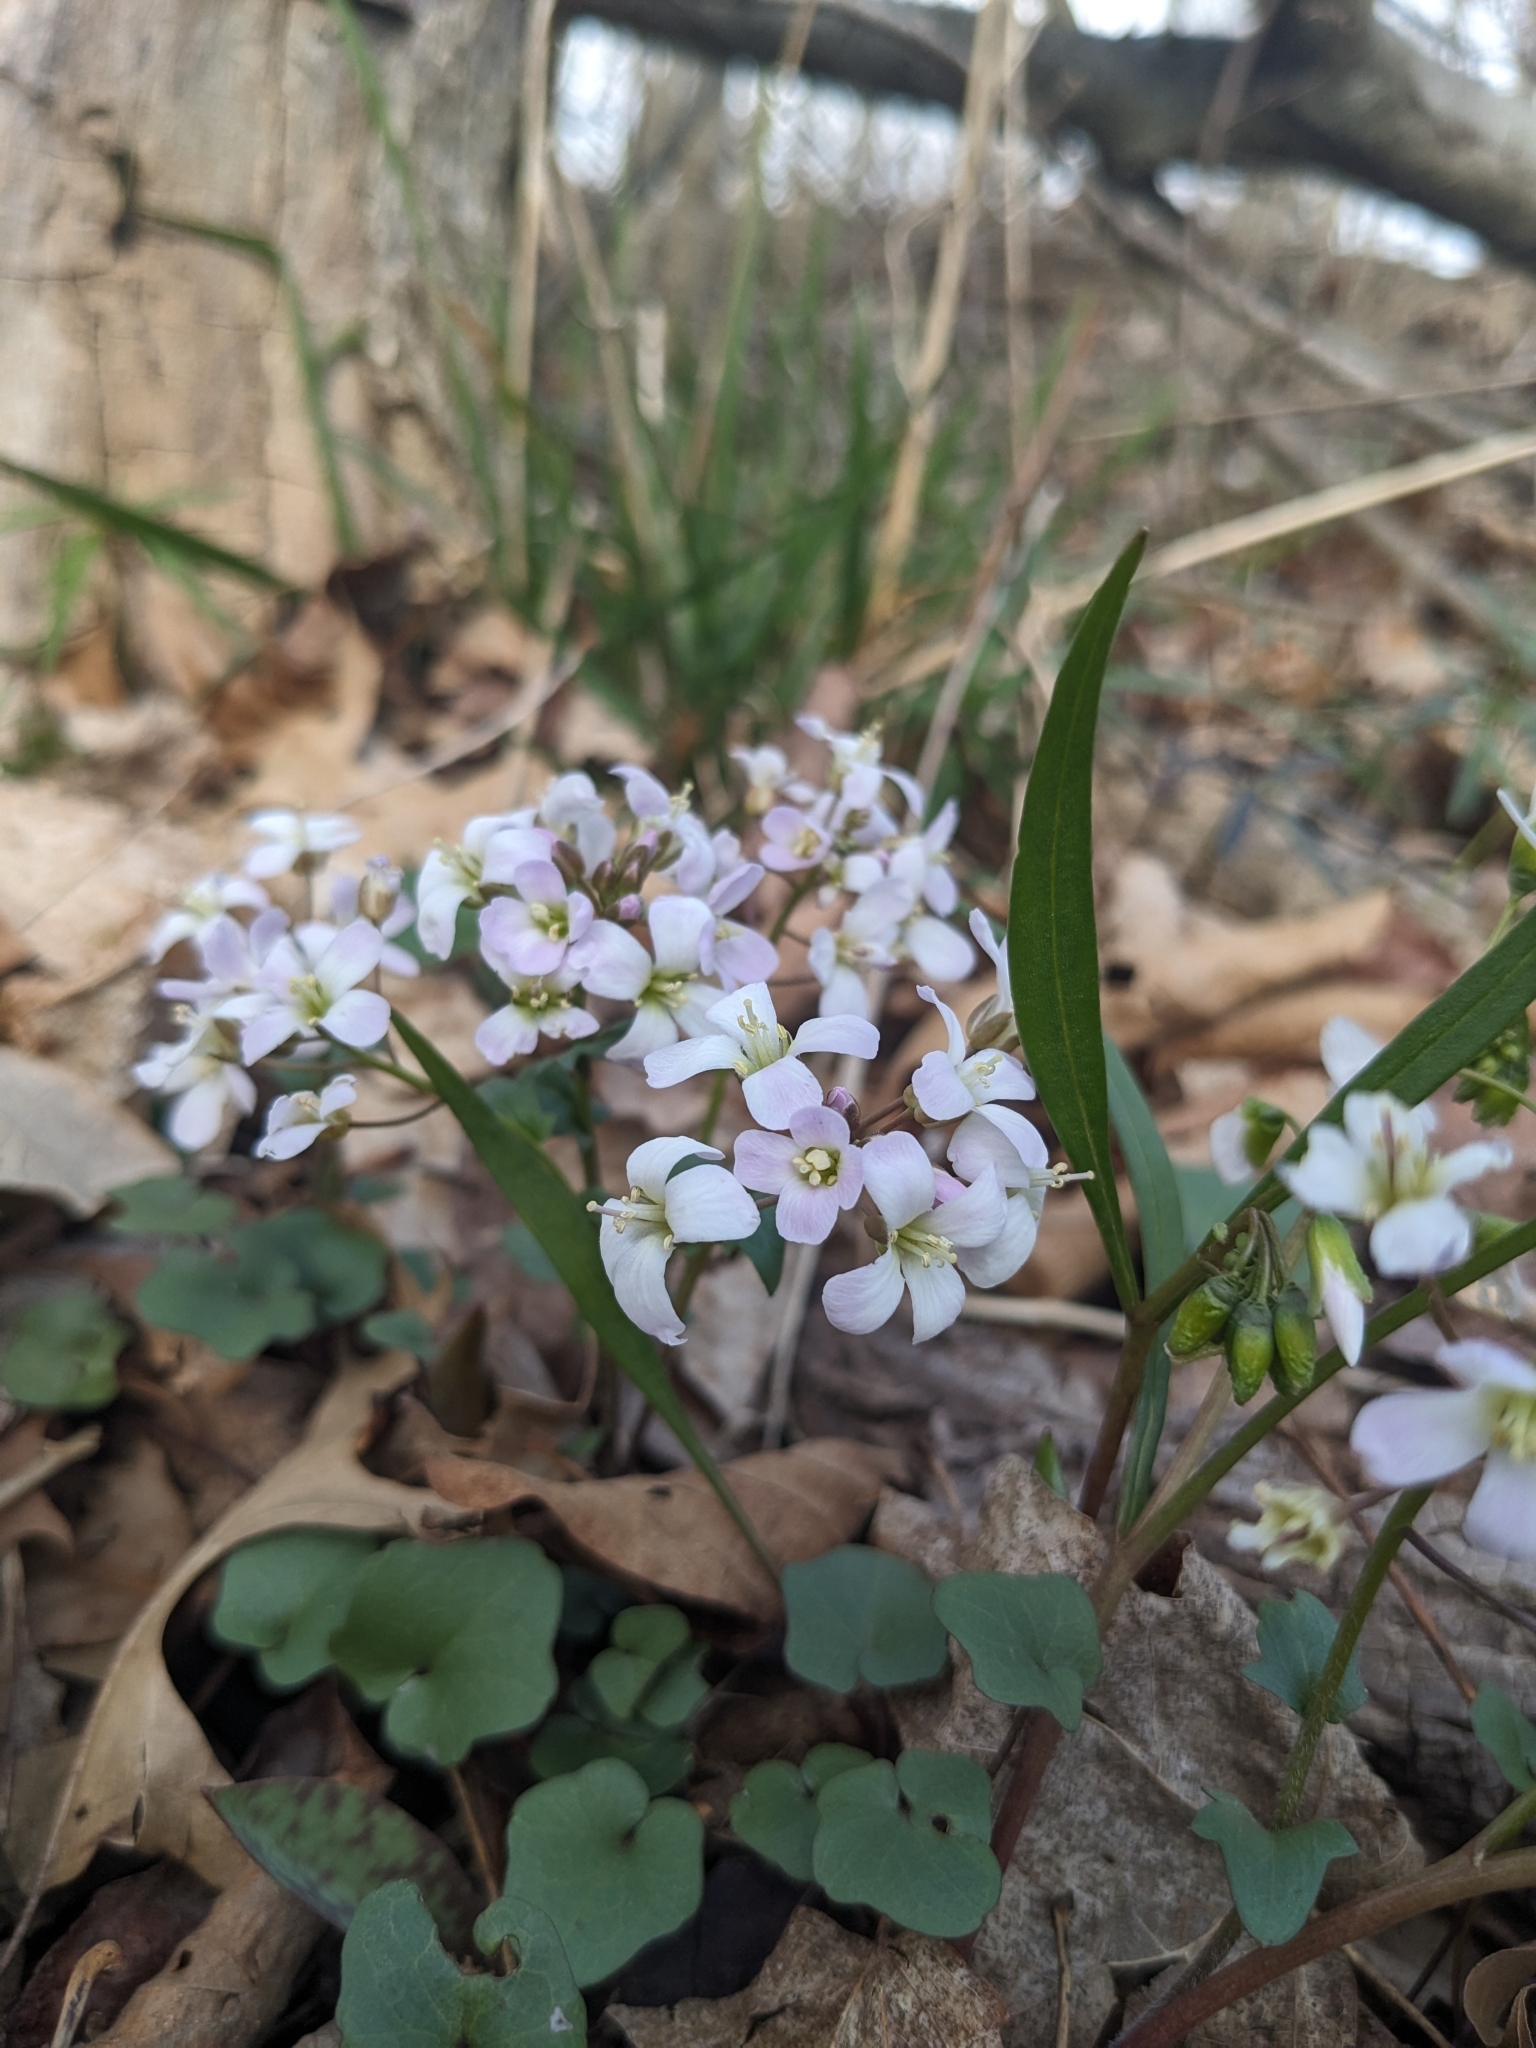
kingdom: Plantae
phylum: Tracheophyta
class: Magnoliopsida
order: Brassicales
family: Brassicaceae
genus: Cardamine
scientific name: Cardamine douglassii
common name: Purple cress
